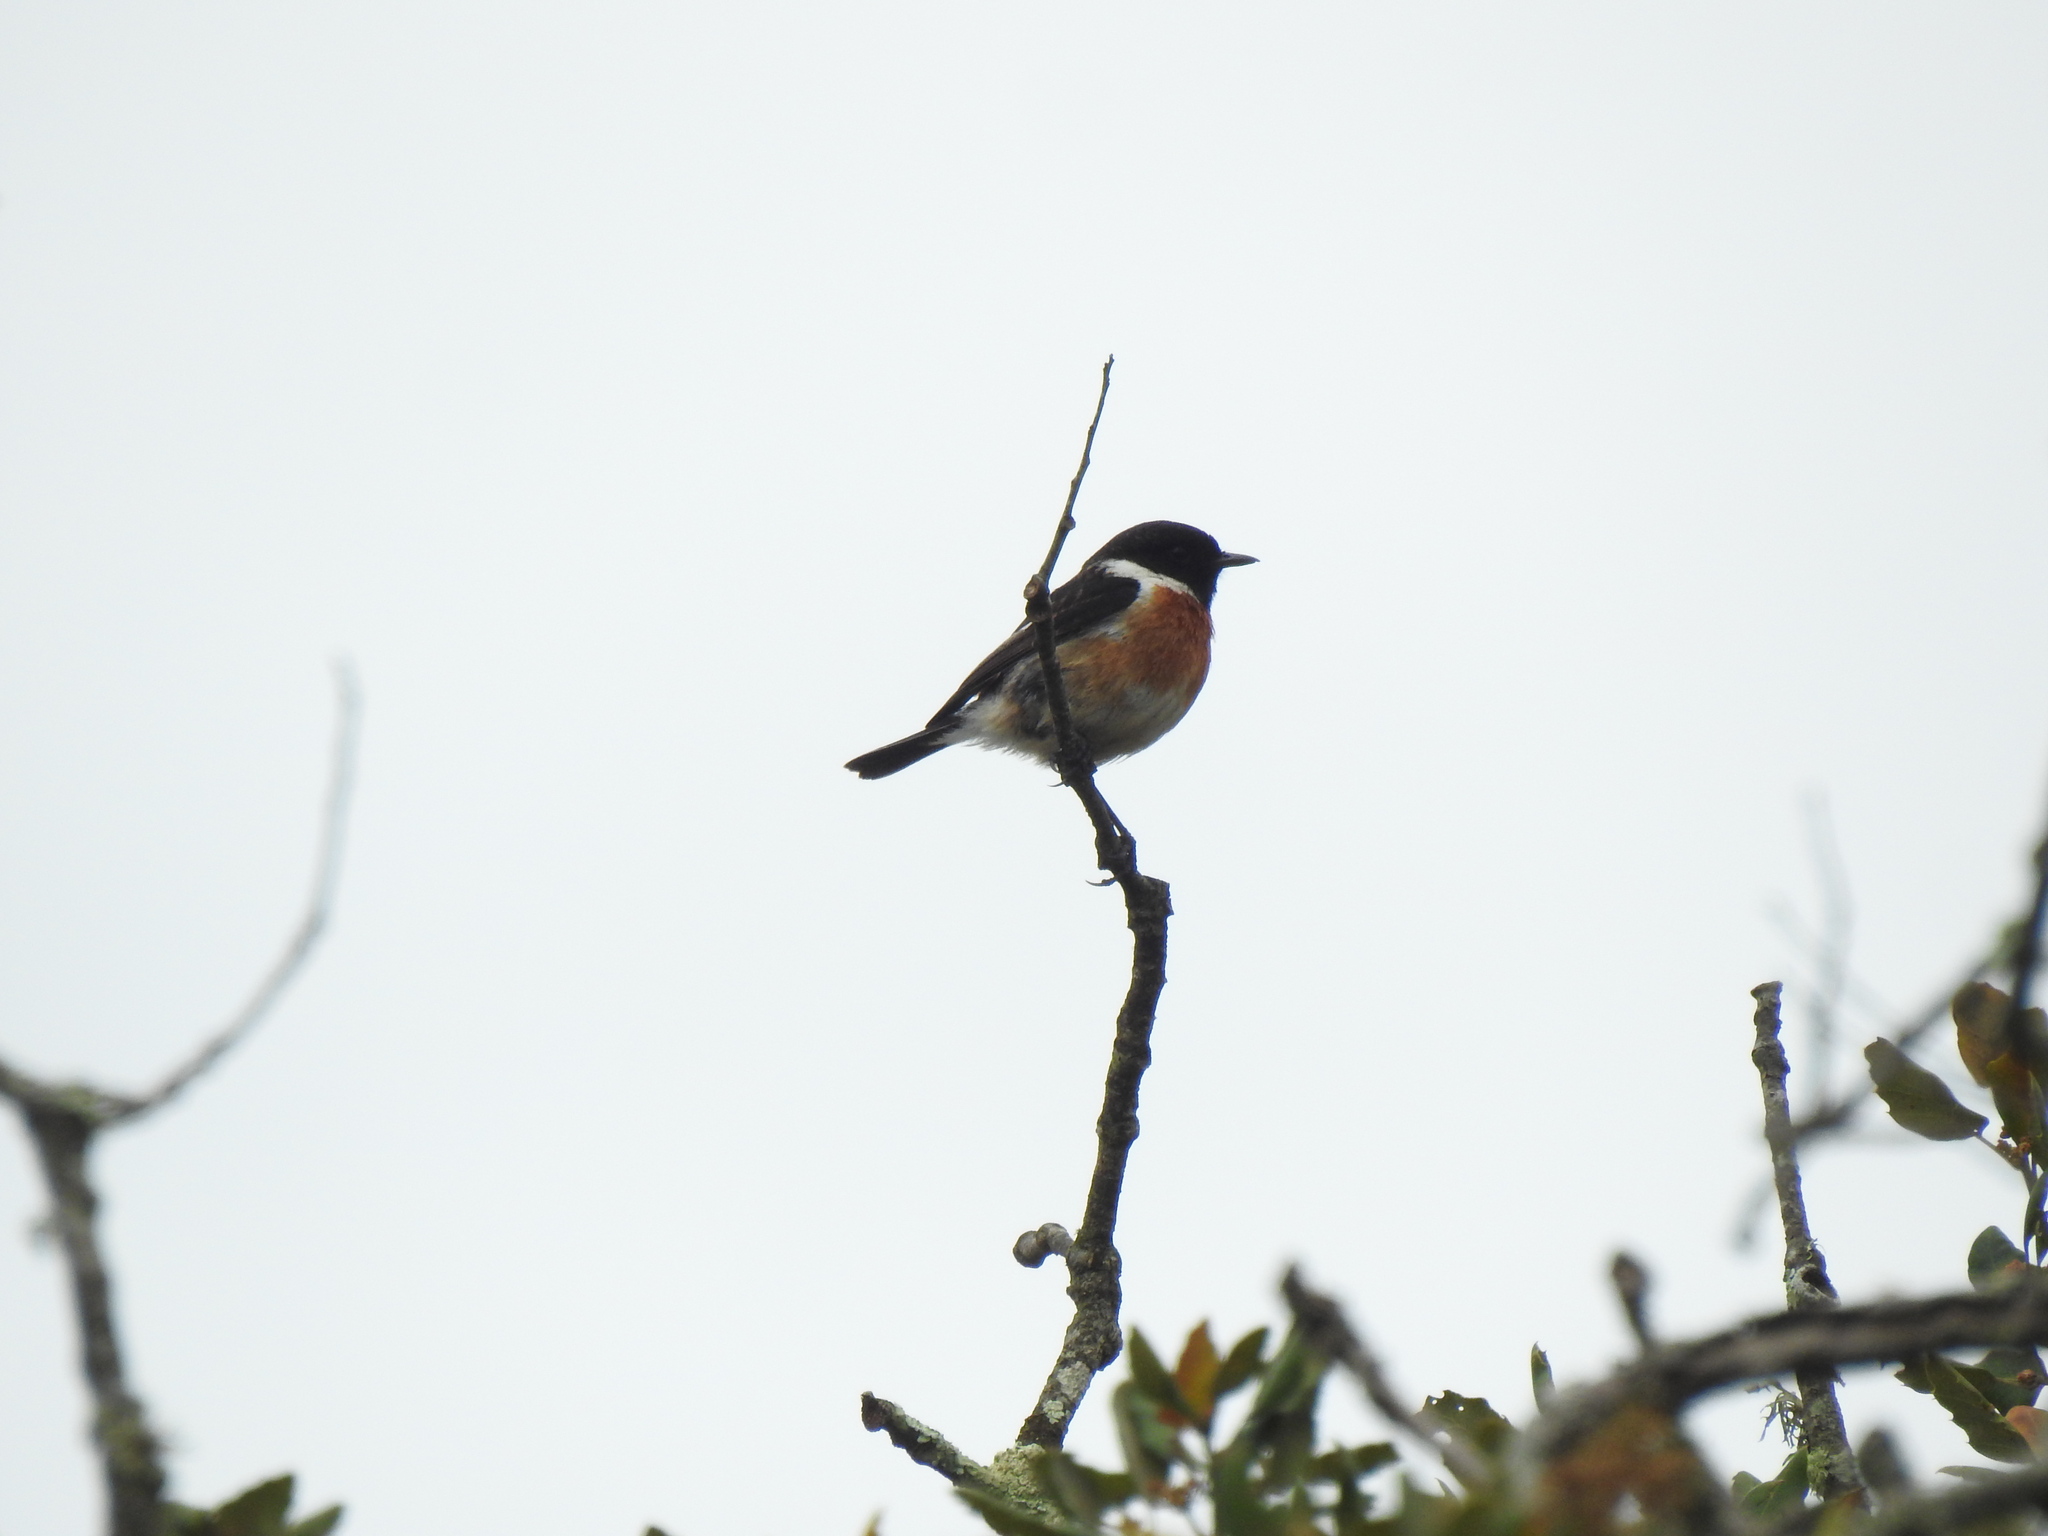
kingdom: Animalia
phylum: Chordata
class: Aves
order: Passeriformes
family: Muscicapidae
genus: Saxicola
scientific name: Saxicola rubicola
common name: European stonechat
